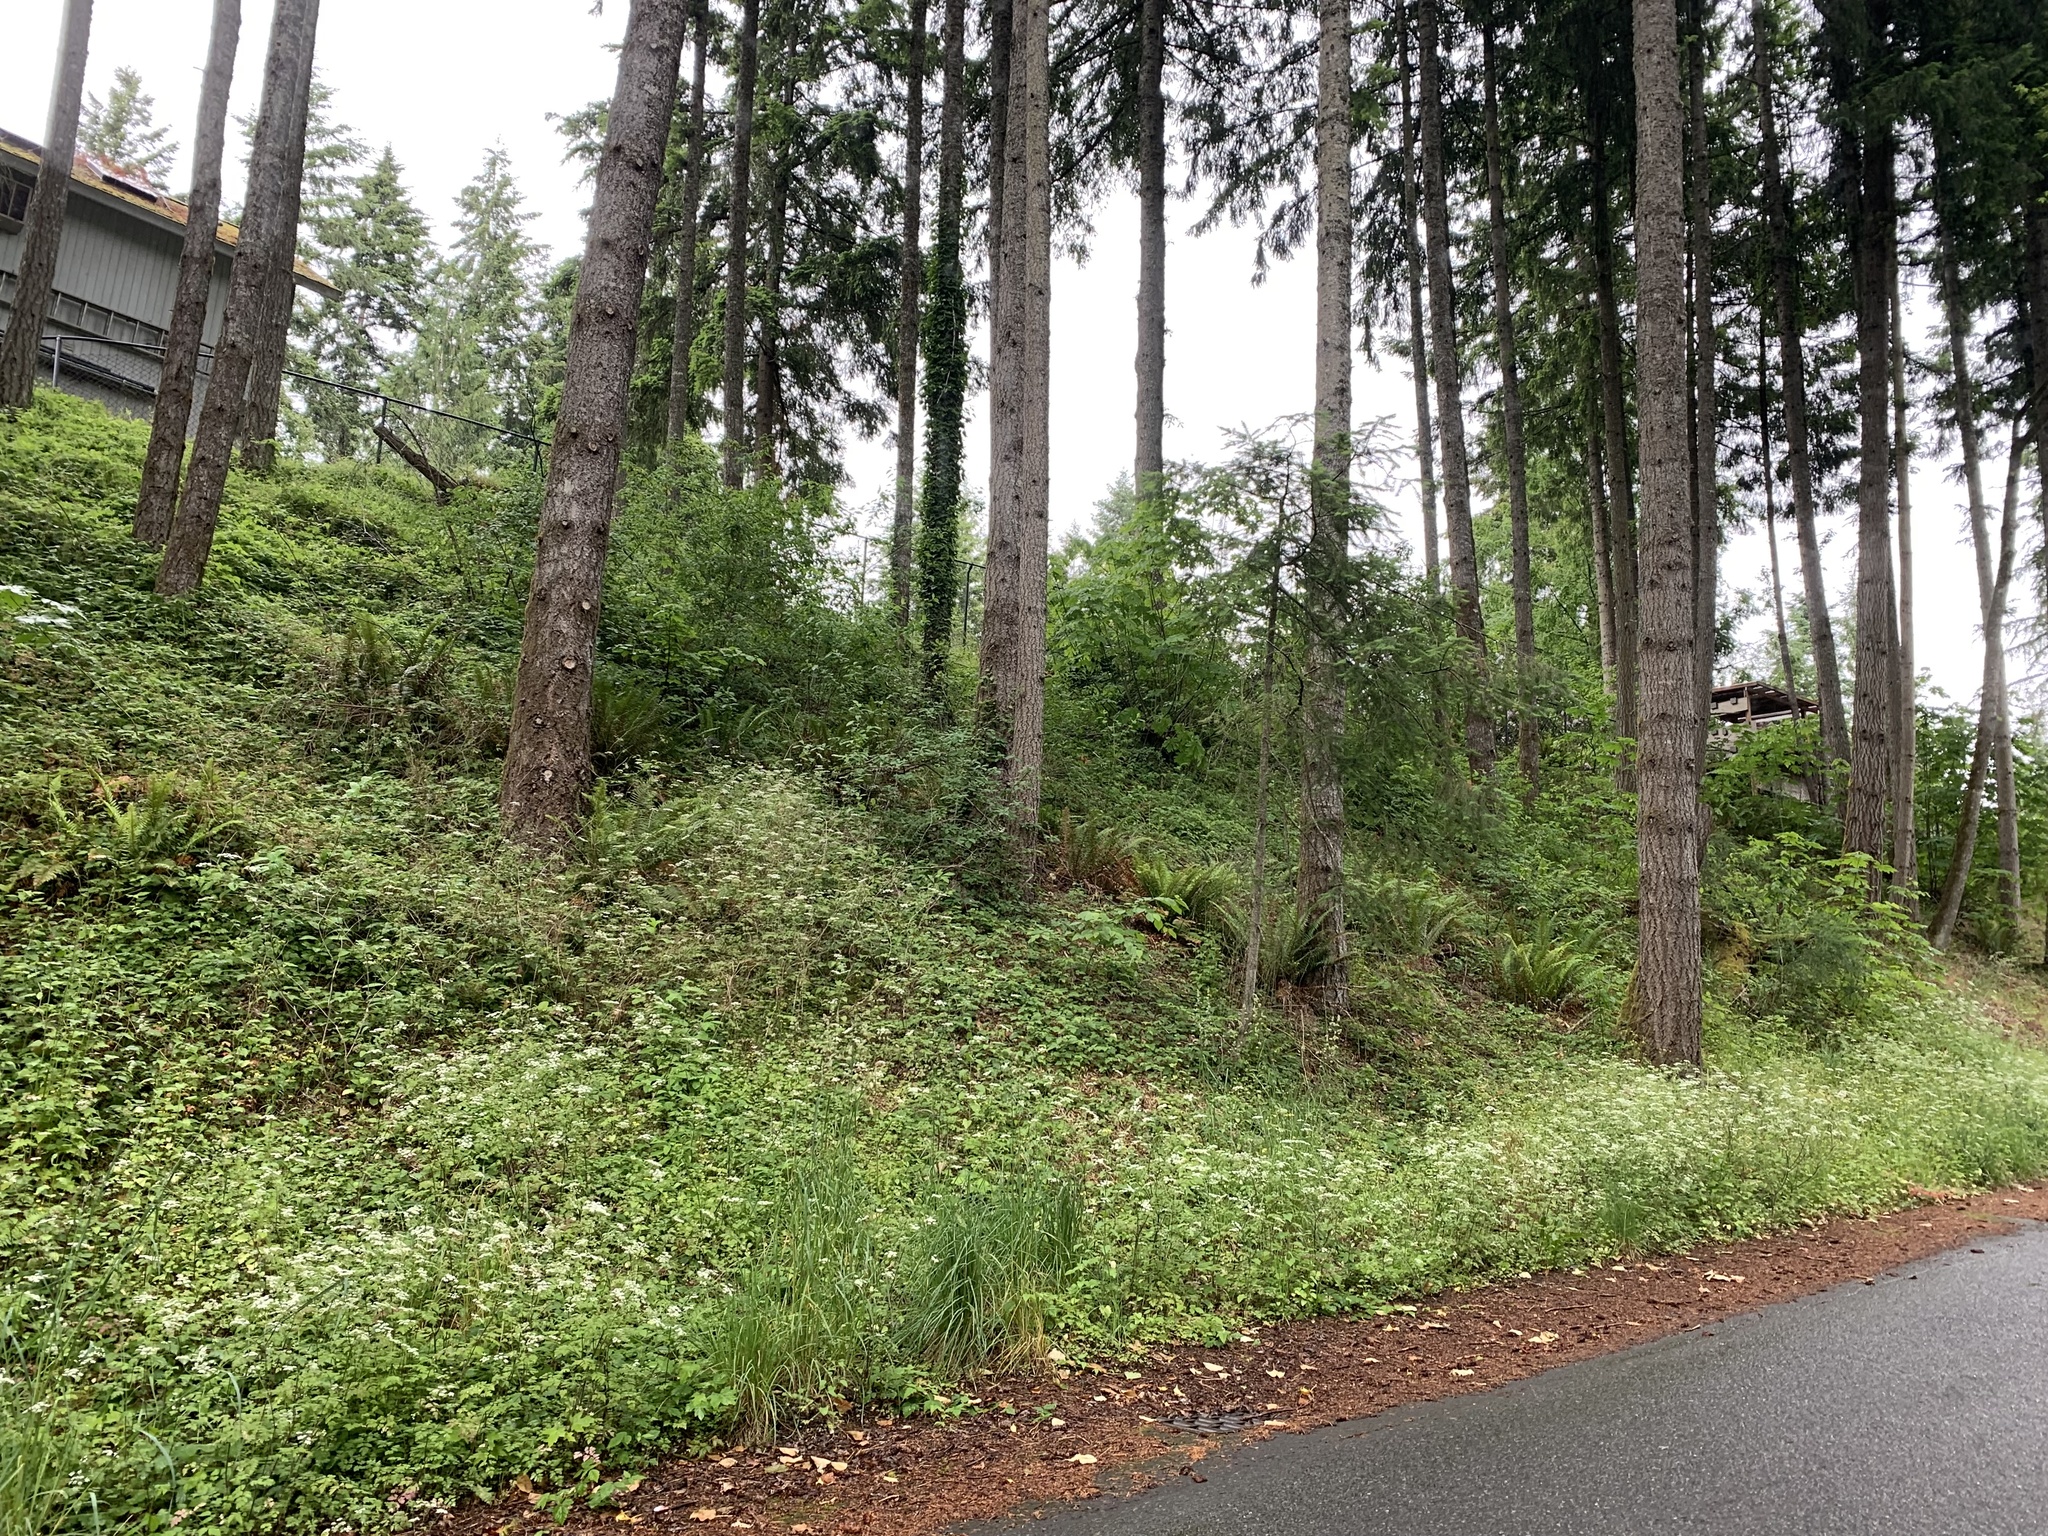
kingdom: Plantae
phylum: Tracheophyta
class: Magnoliopsida
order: Apiales
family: Apiaceae
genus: Chaerophyllum
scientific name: Chaerophyllum temulum
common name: Rough chervil
